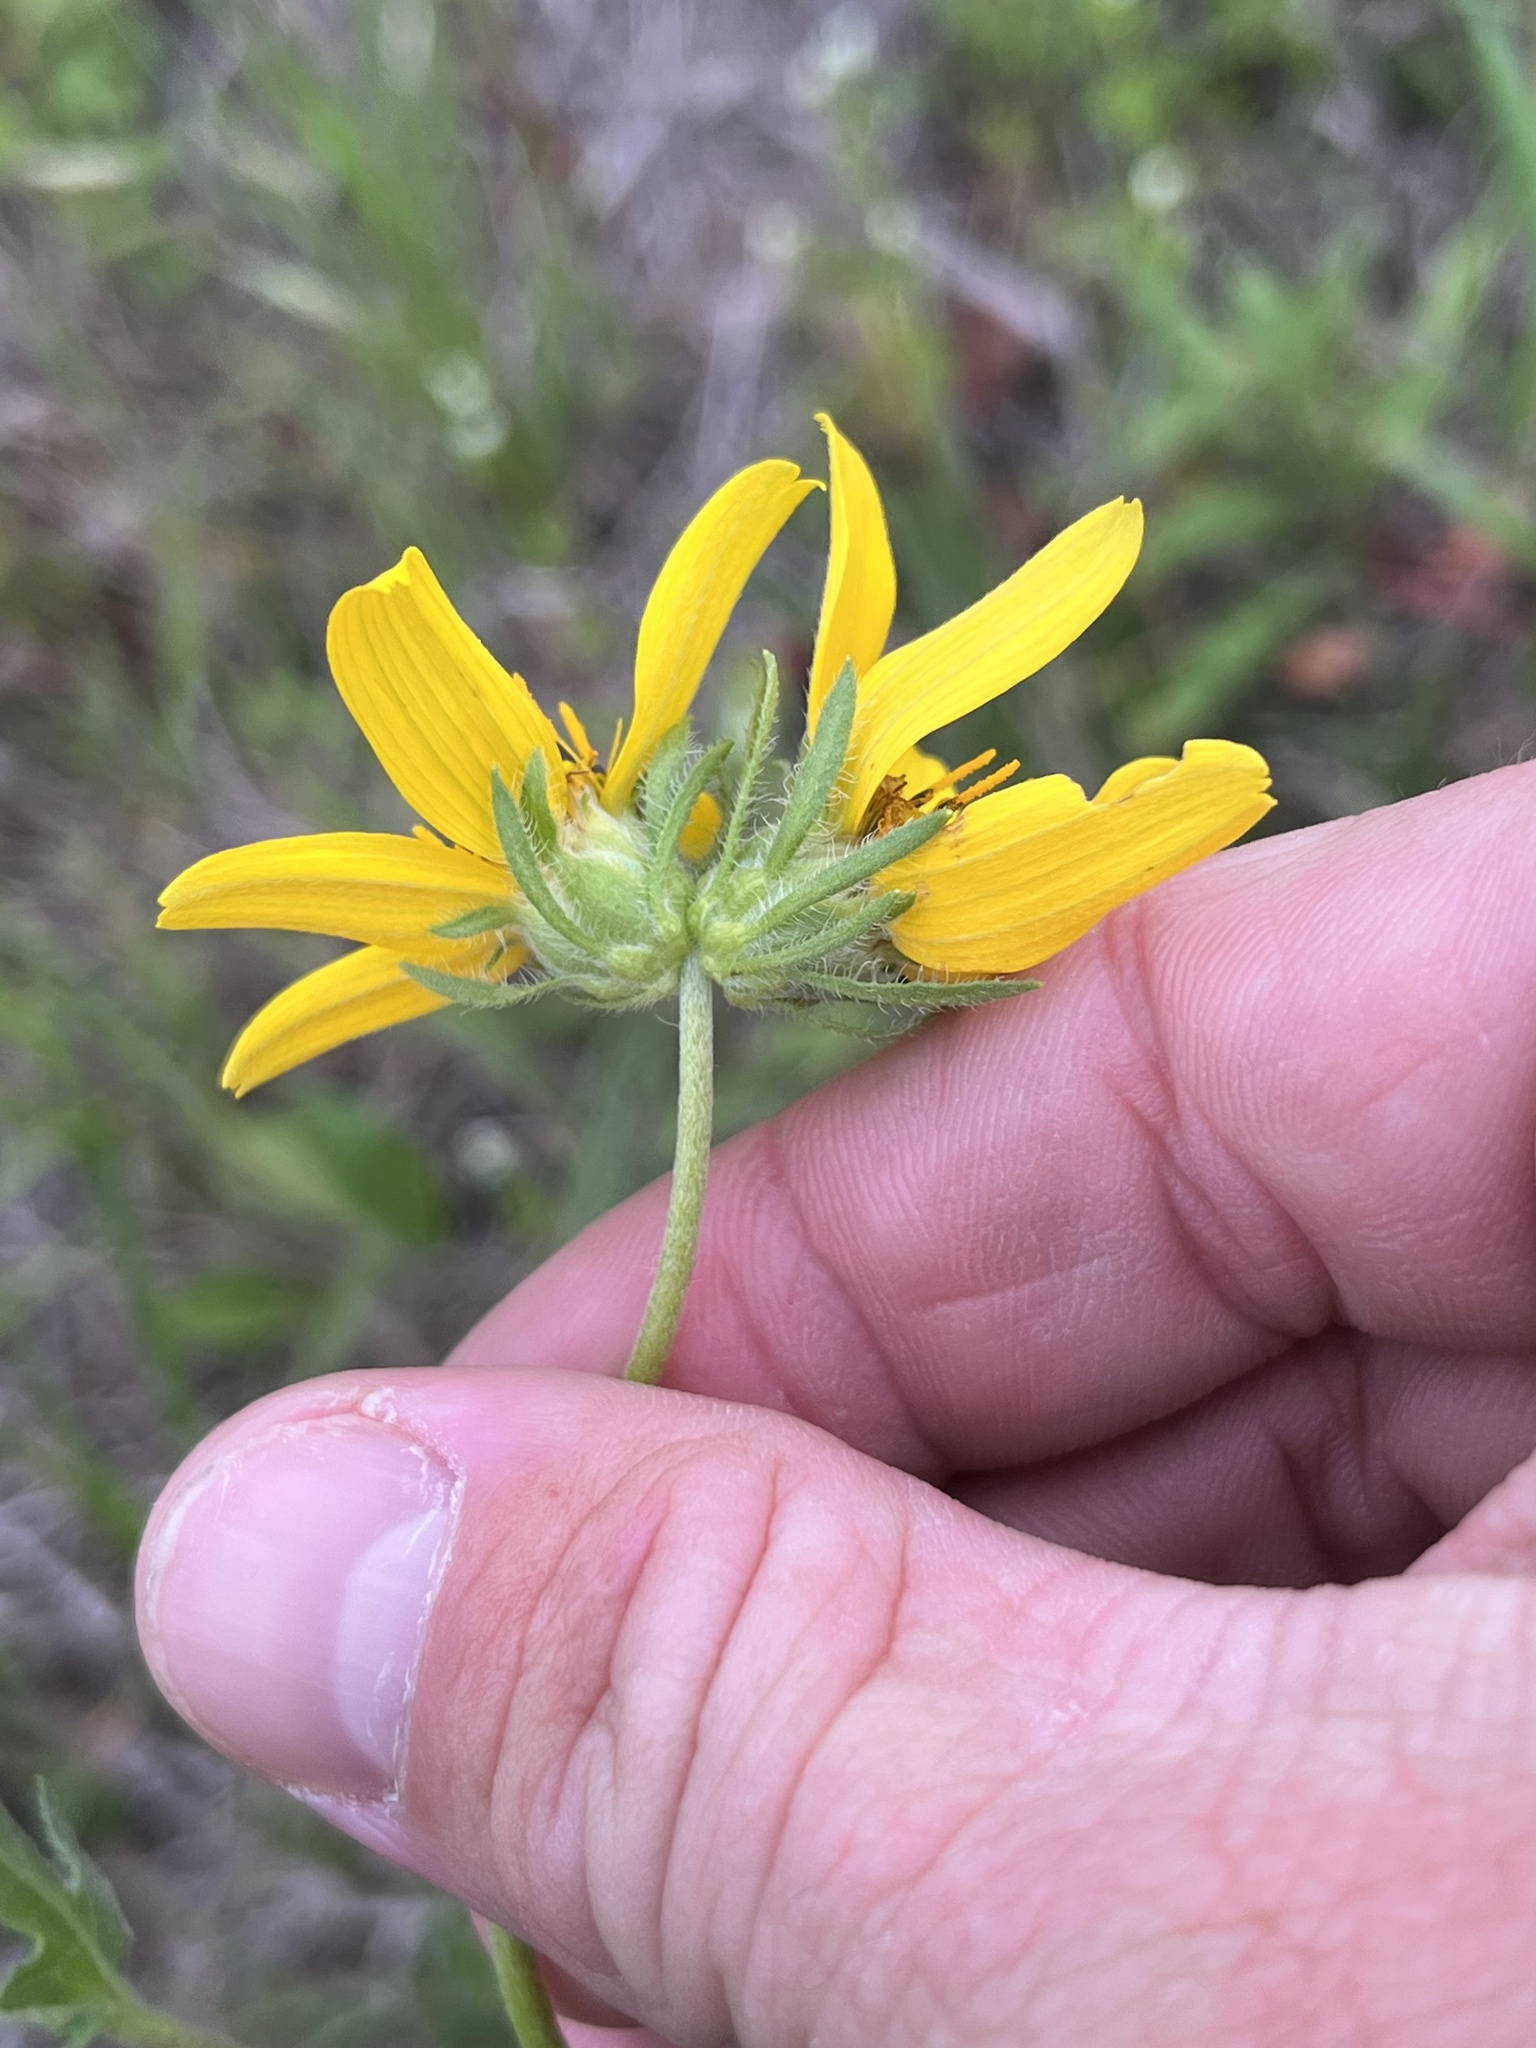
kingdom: Plantae
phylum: Tracheophyta
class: Magnoliopsida
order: Asterales
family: Asteraceae
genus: Engelmannia
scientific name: Engelmannia peristenia
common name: Engelmann's daisy
